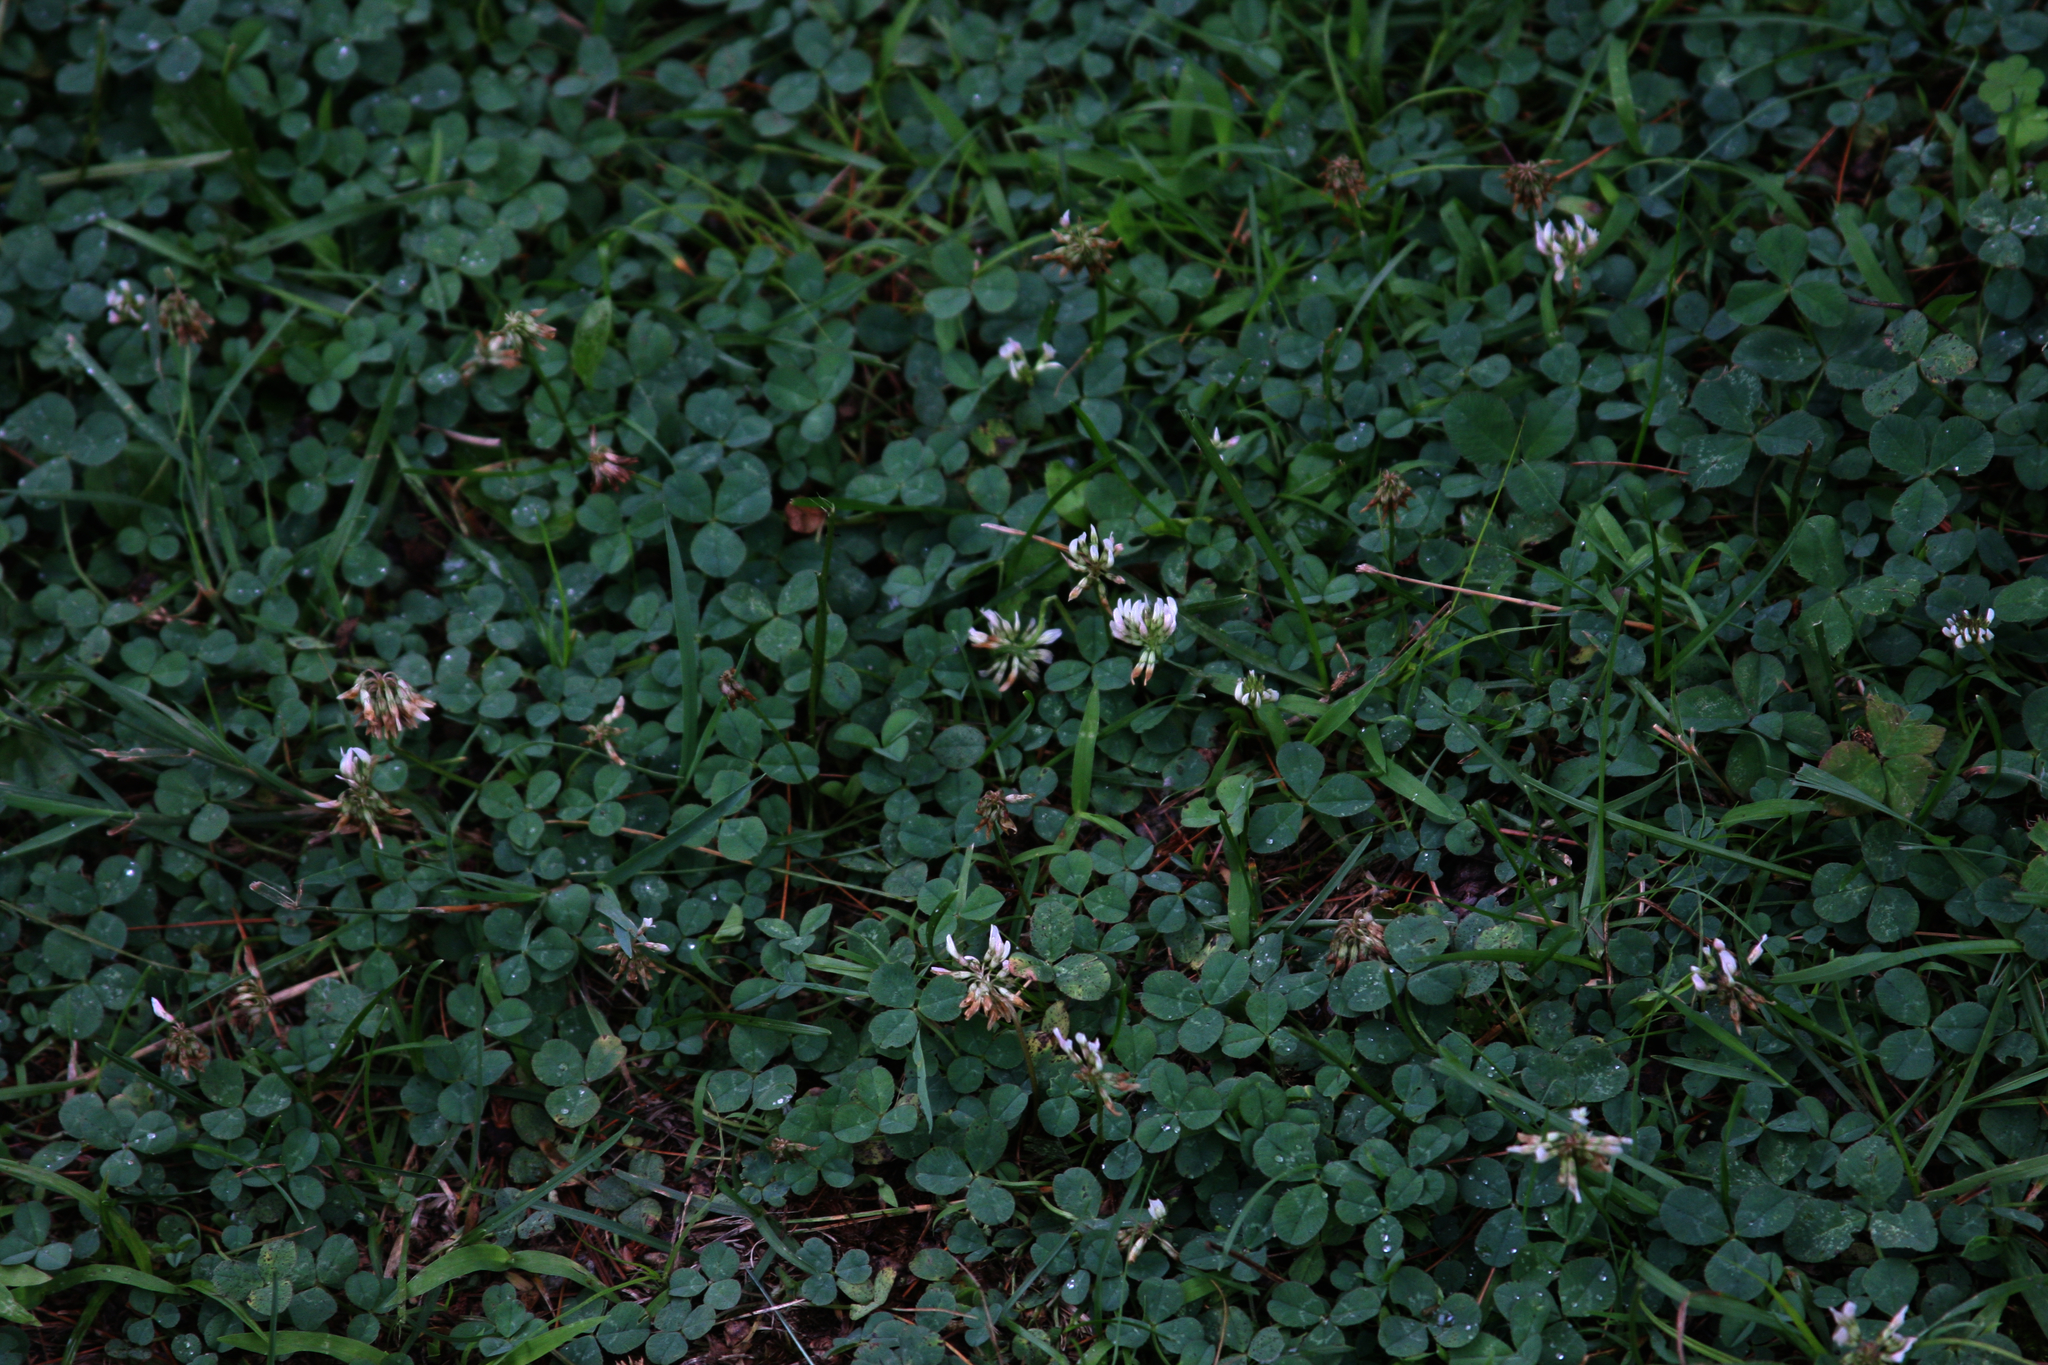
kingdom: Plantae
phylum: Tracheophyta
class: Magnoliopsida
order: Fabales
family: Fabaceae
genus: Trifolium
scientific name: Trifolium repens
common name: White clover
